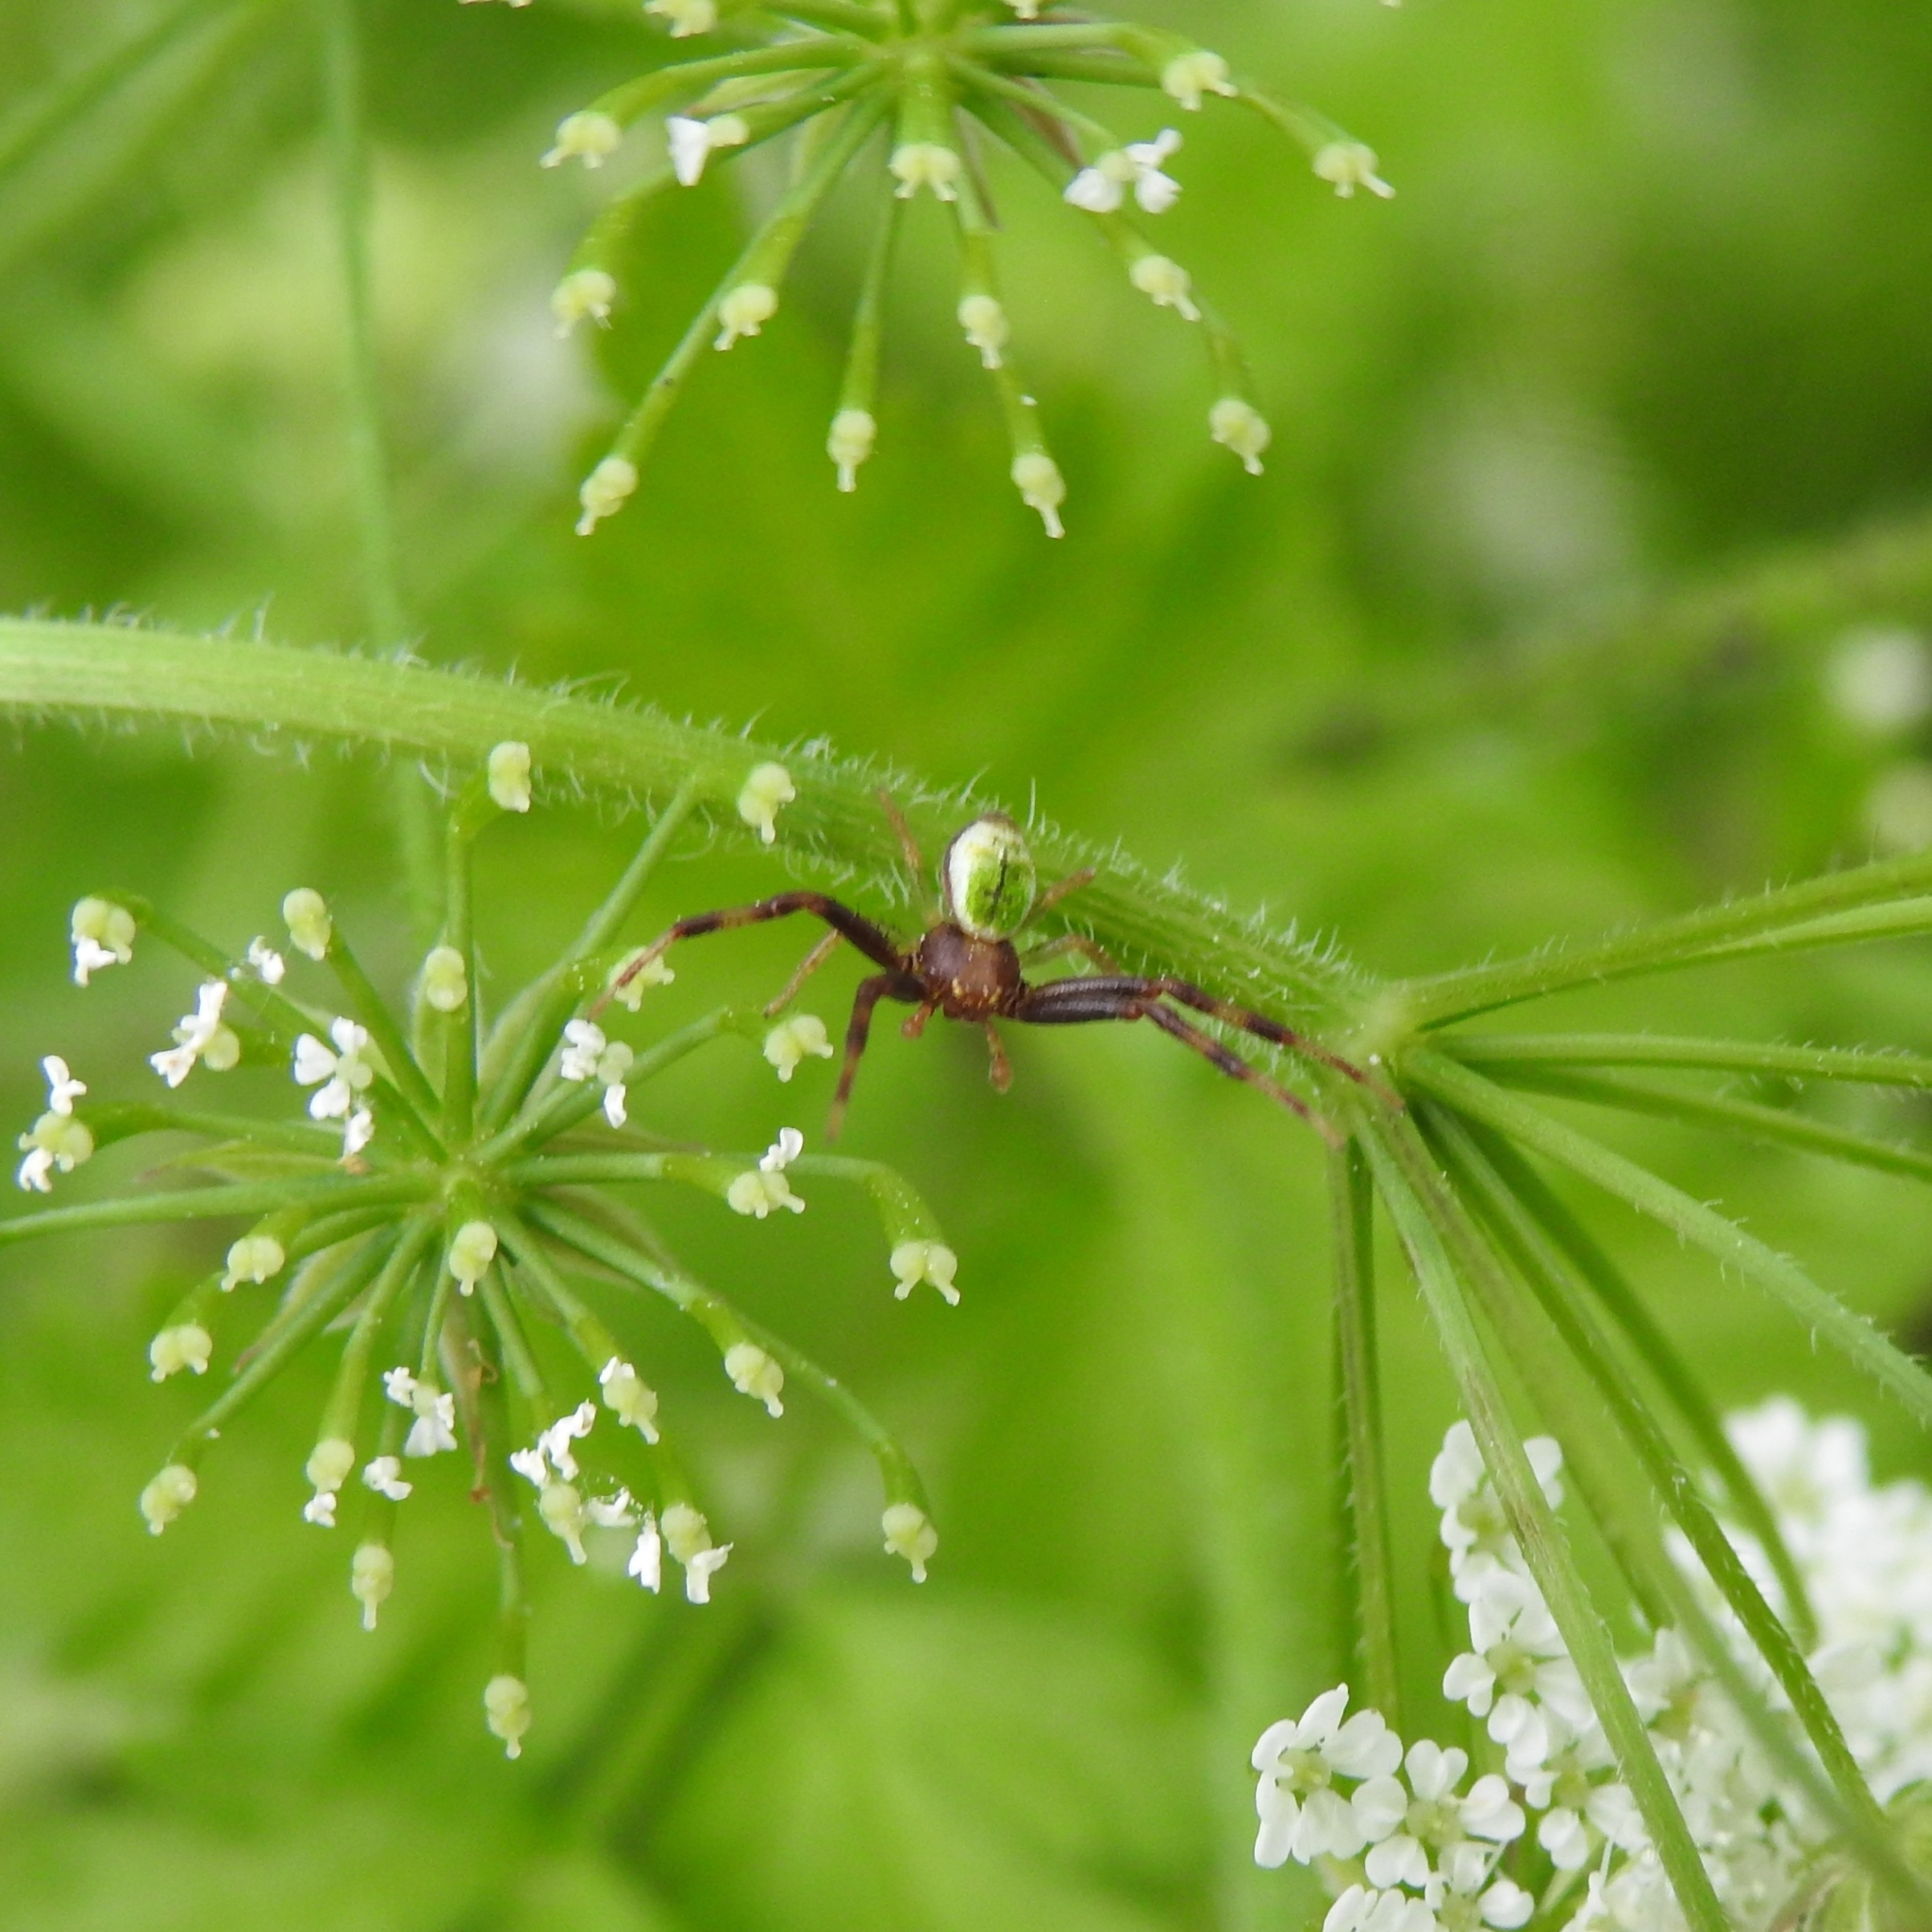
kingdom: Animalia
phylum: Arthropoda
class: Arachnida
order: Araneae
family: Thomisidae
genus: Ebrechtella
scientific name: Ebrechtella tricuspidata
